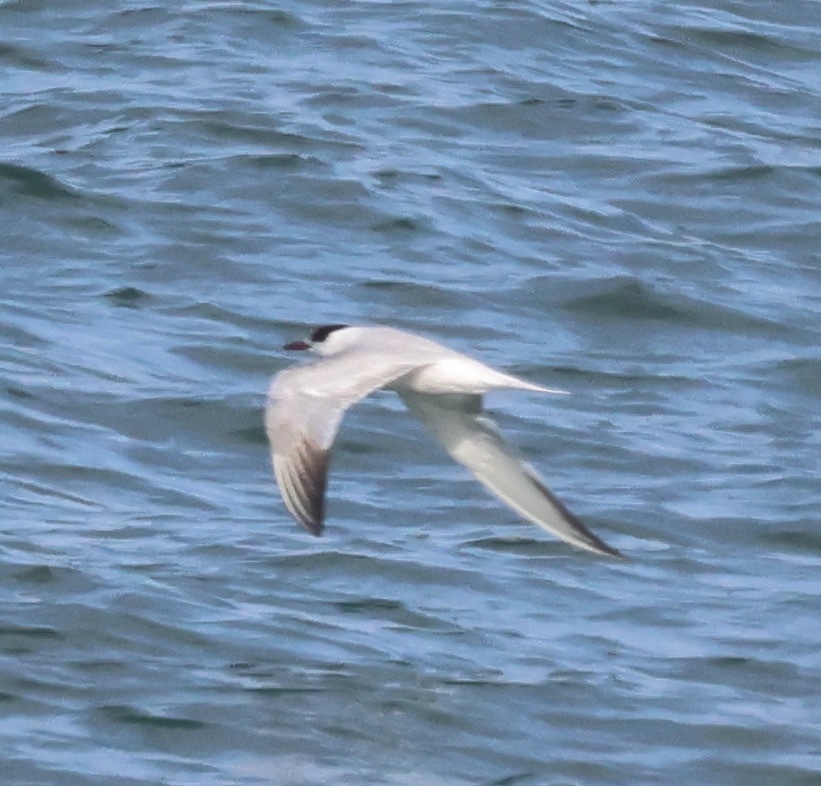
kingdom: Animalia
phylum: Chordata
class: Aves
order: Charadriiformes
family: Laridae
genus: Sterna
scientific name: Sterna hirundo
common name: Common tern
